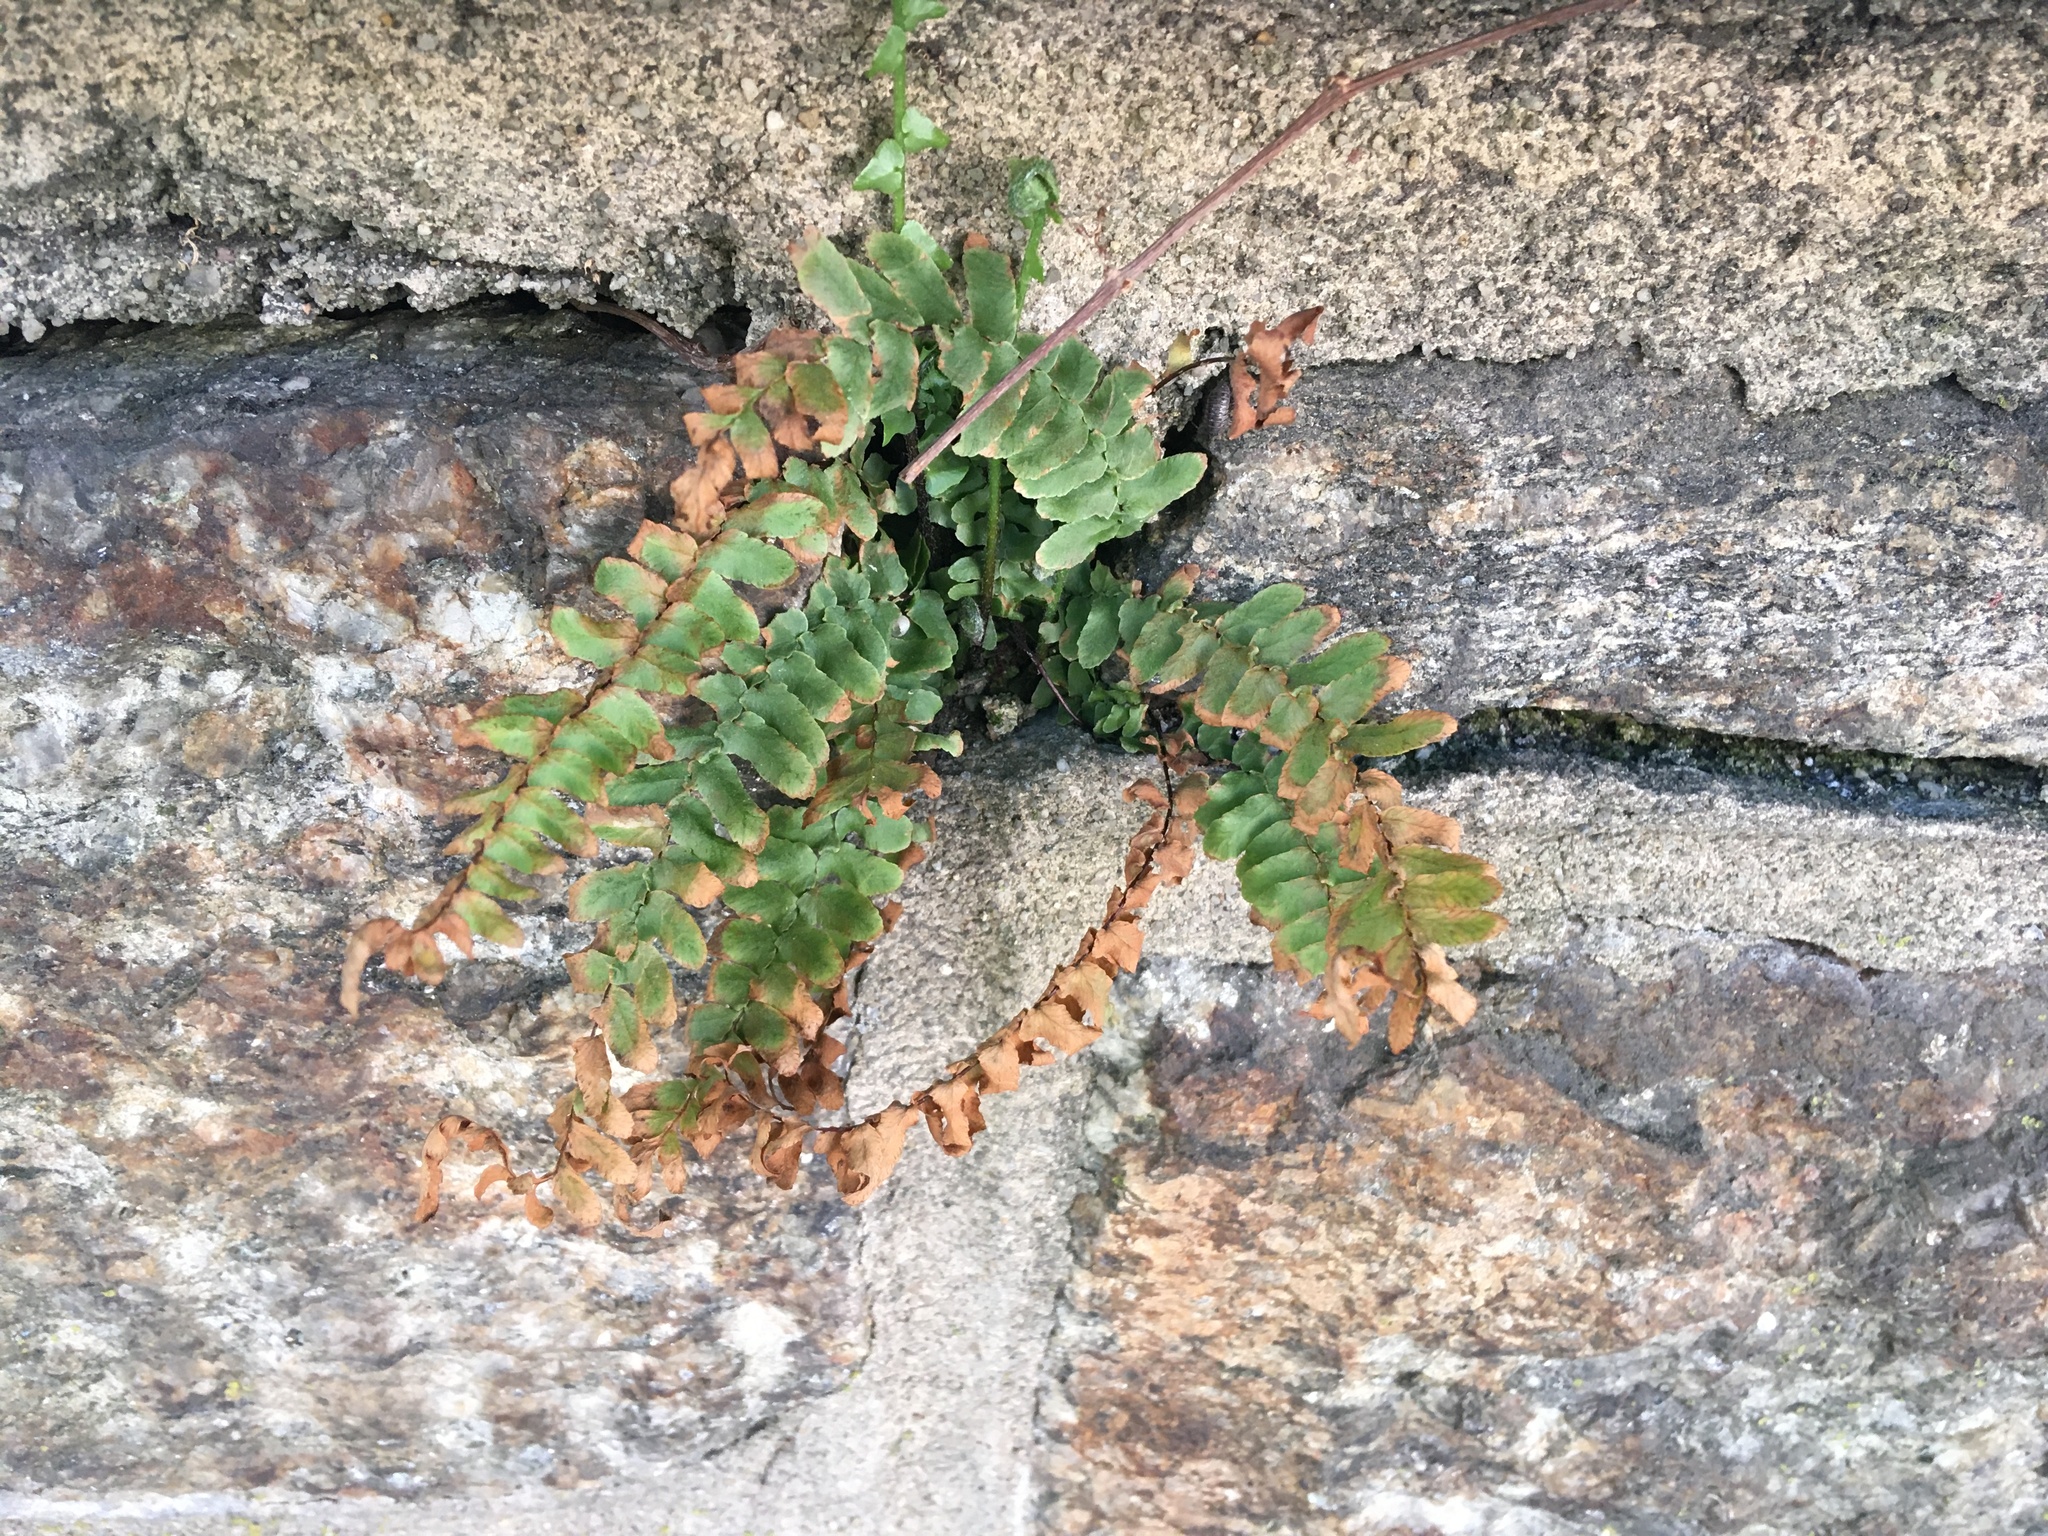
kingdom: Plantae
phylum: Tracheophyta
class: Polypodiopsida
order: Polypodiales
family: Aspleniaceae
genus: Asplenium
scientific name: Asplenium platyneuron
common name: Ebony spleenwort
